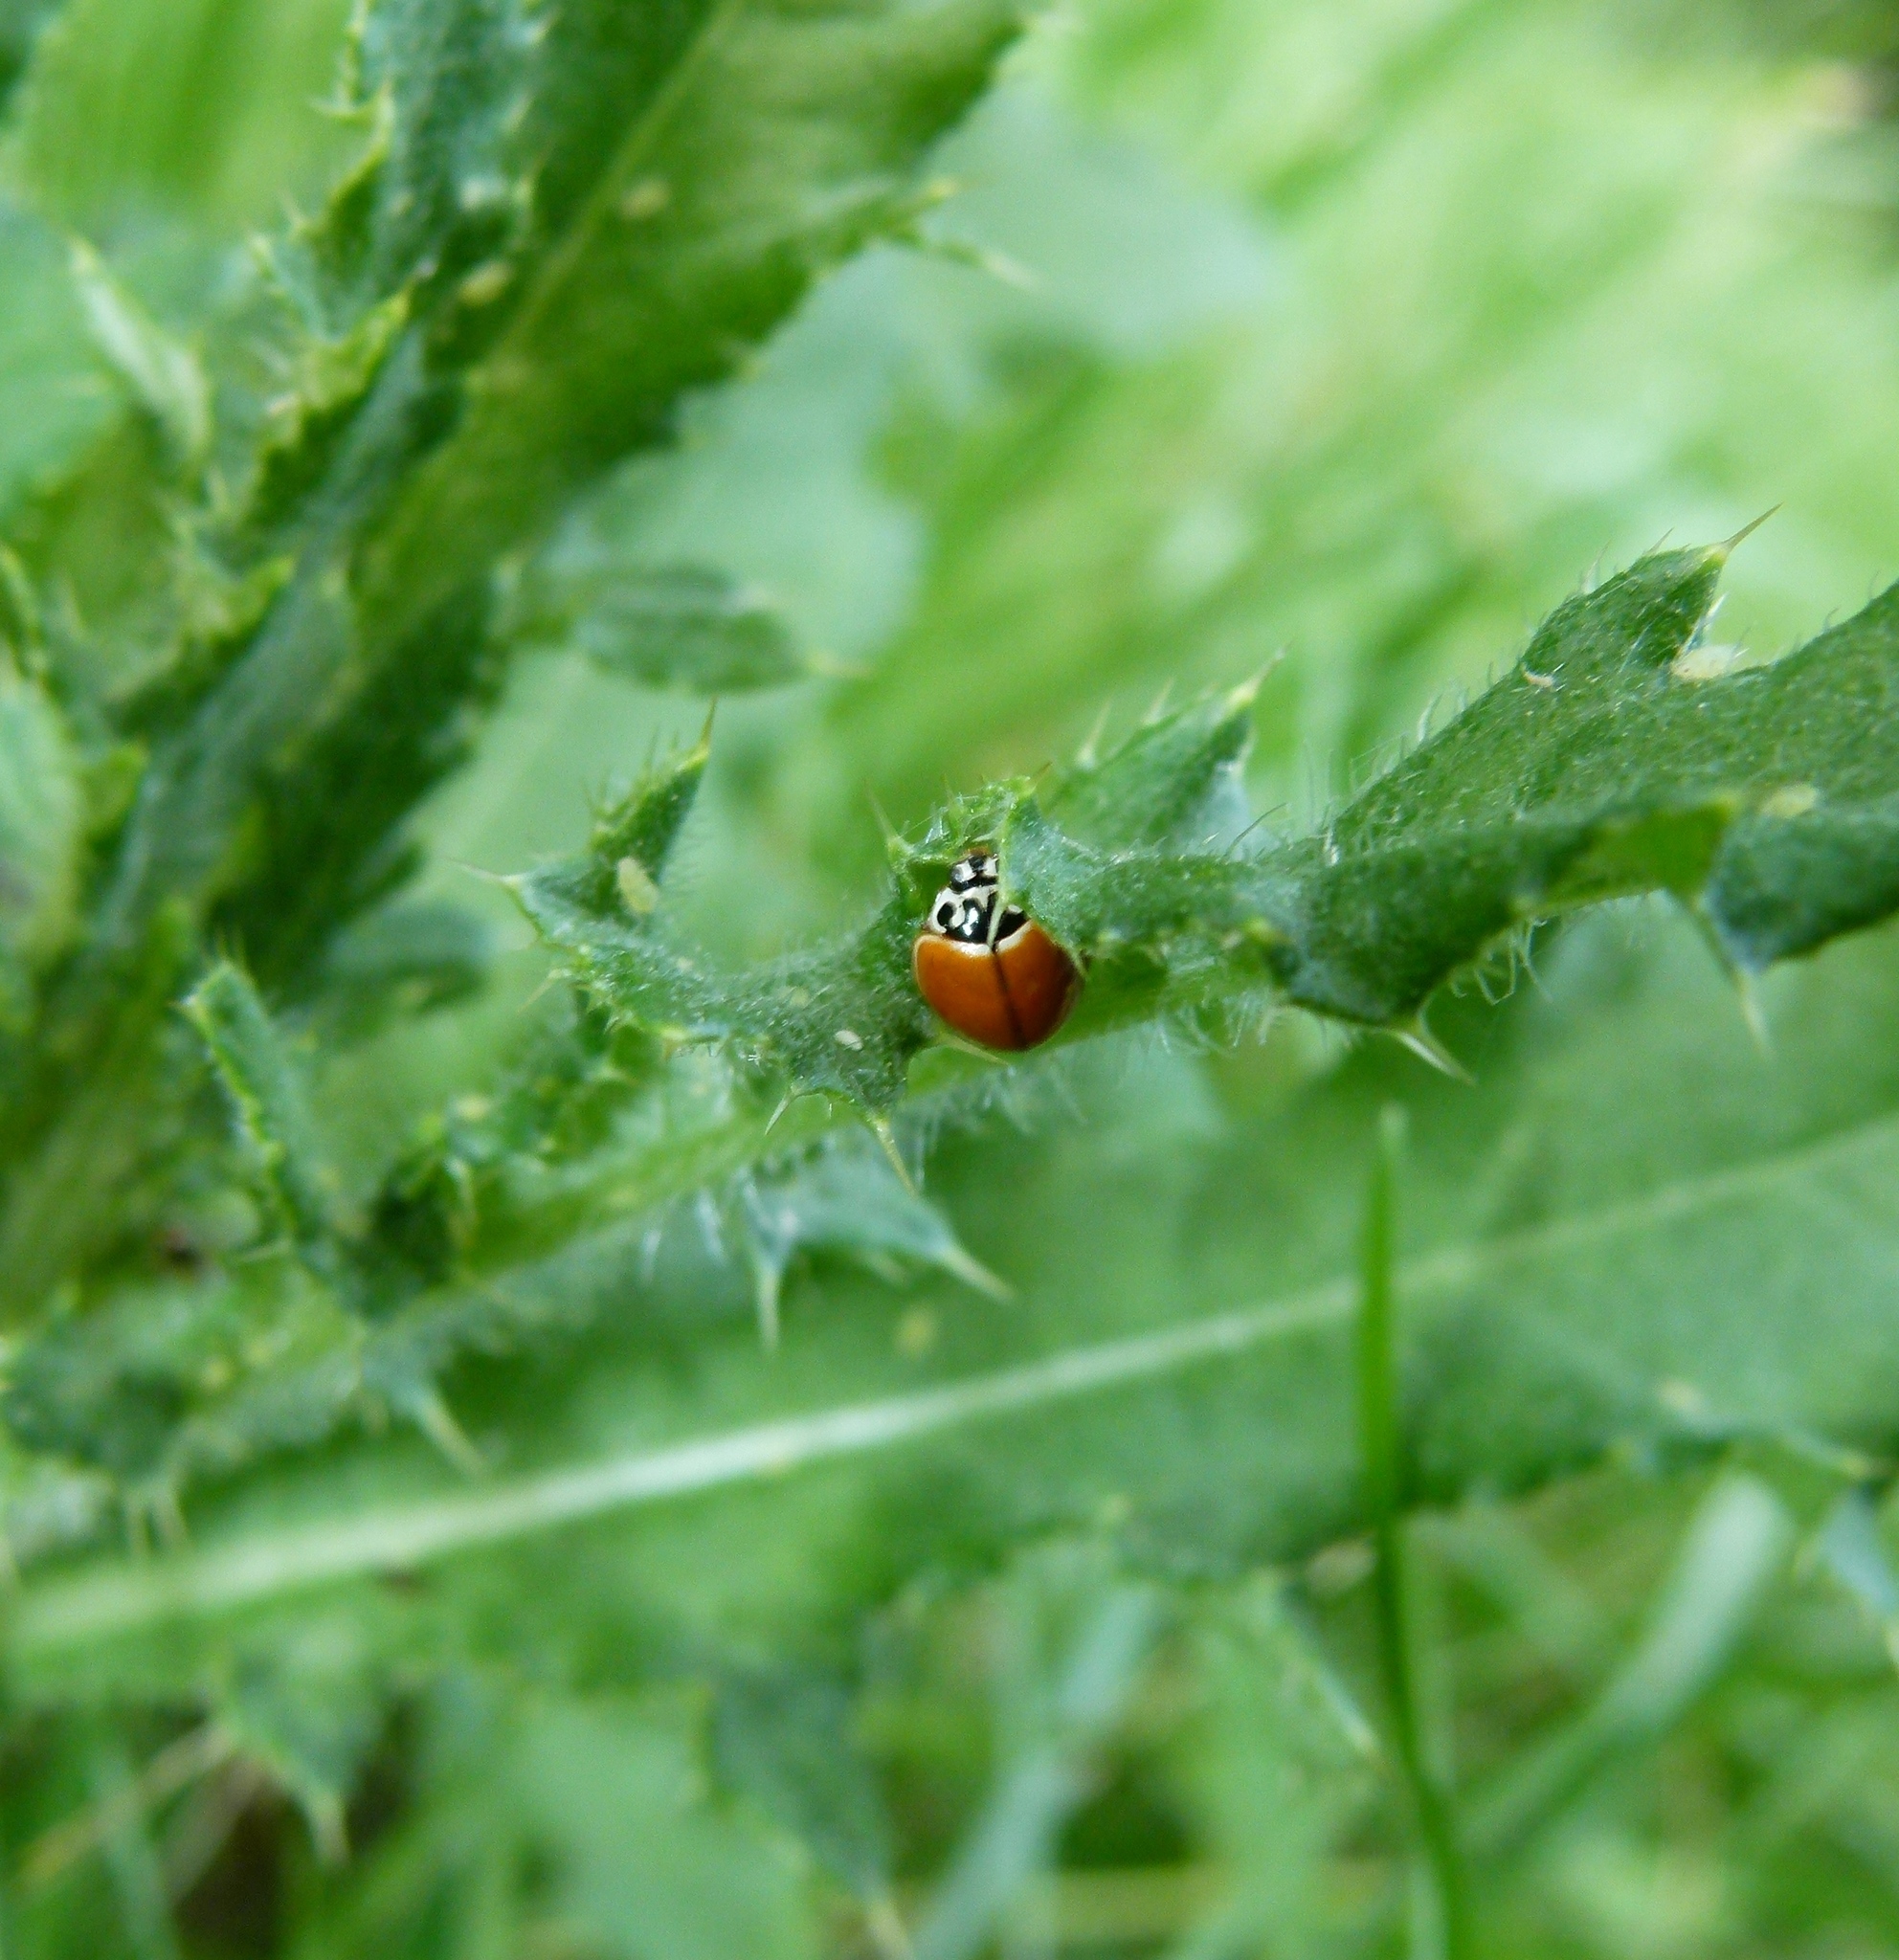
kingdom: Animalia
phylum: Arthropoda
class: Insecta
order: Coleoptera
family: Coccinellidae
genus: Cycloneda
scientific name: Cycloneda munda
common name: Polished lady beetle
